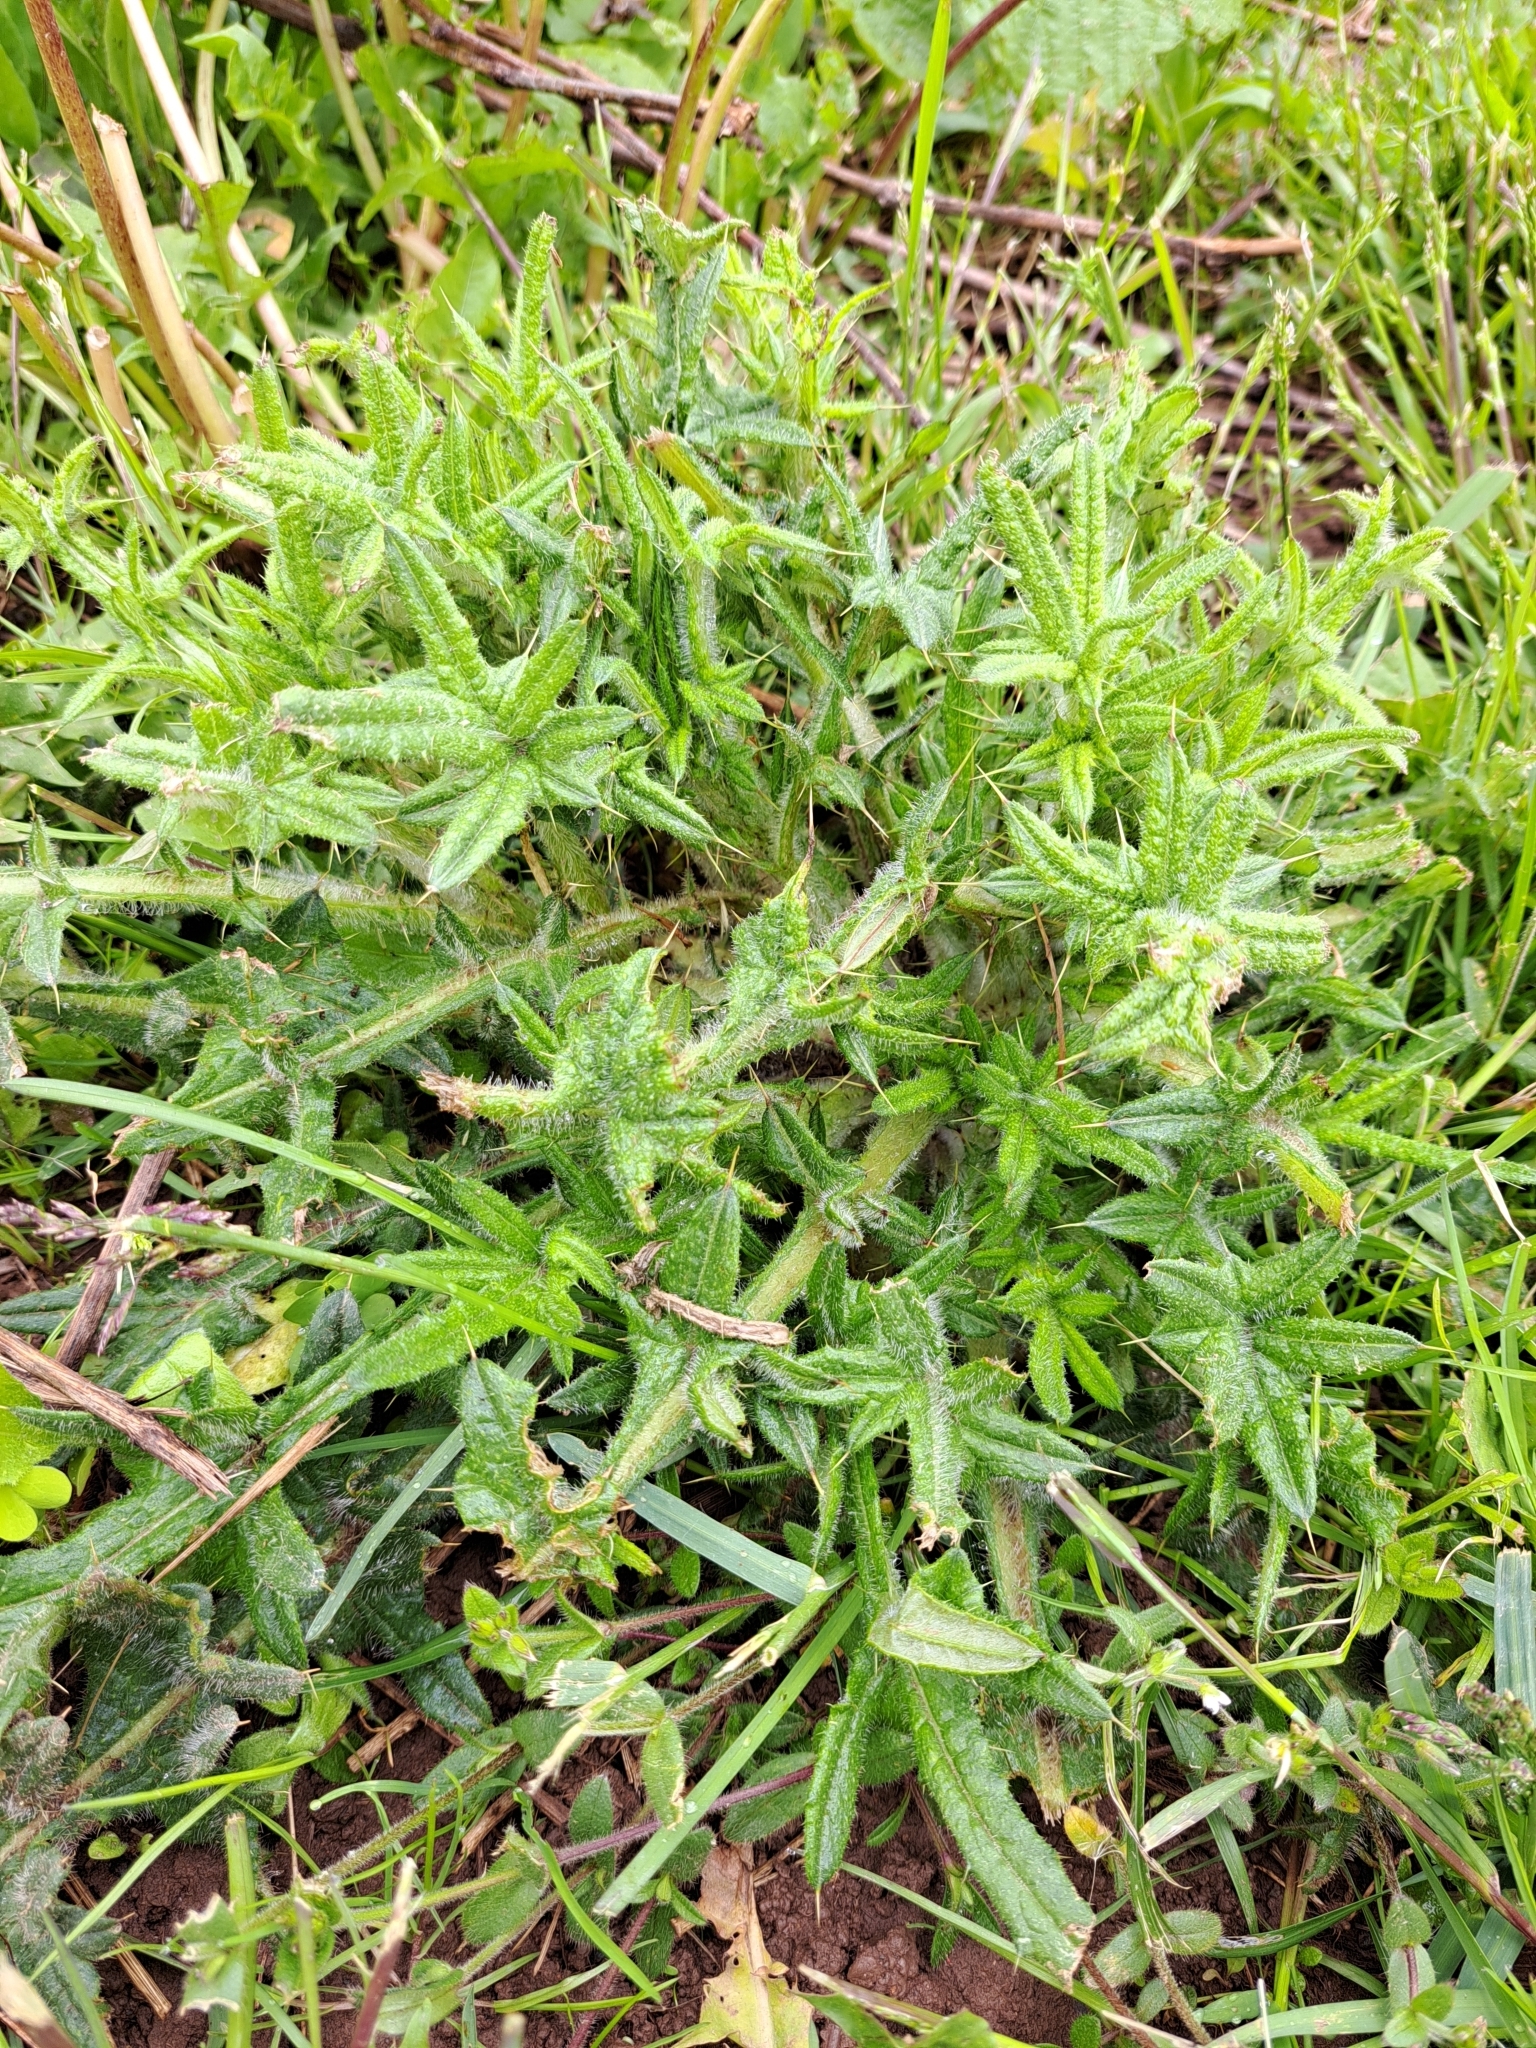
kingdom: Plantae
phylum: Tracheophyta
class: Magnoliopsida
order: Asterales
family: Asteraceae
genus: Cirsium
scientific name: Cirsium vulgare
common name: Bull thistle
